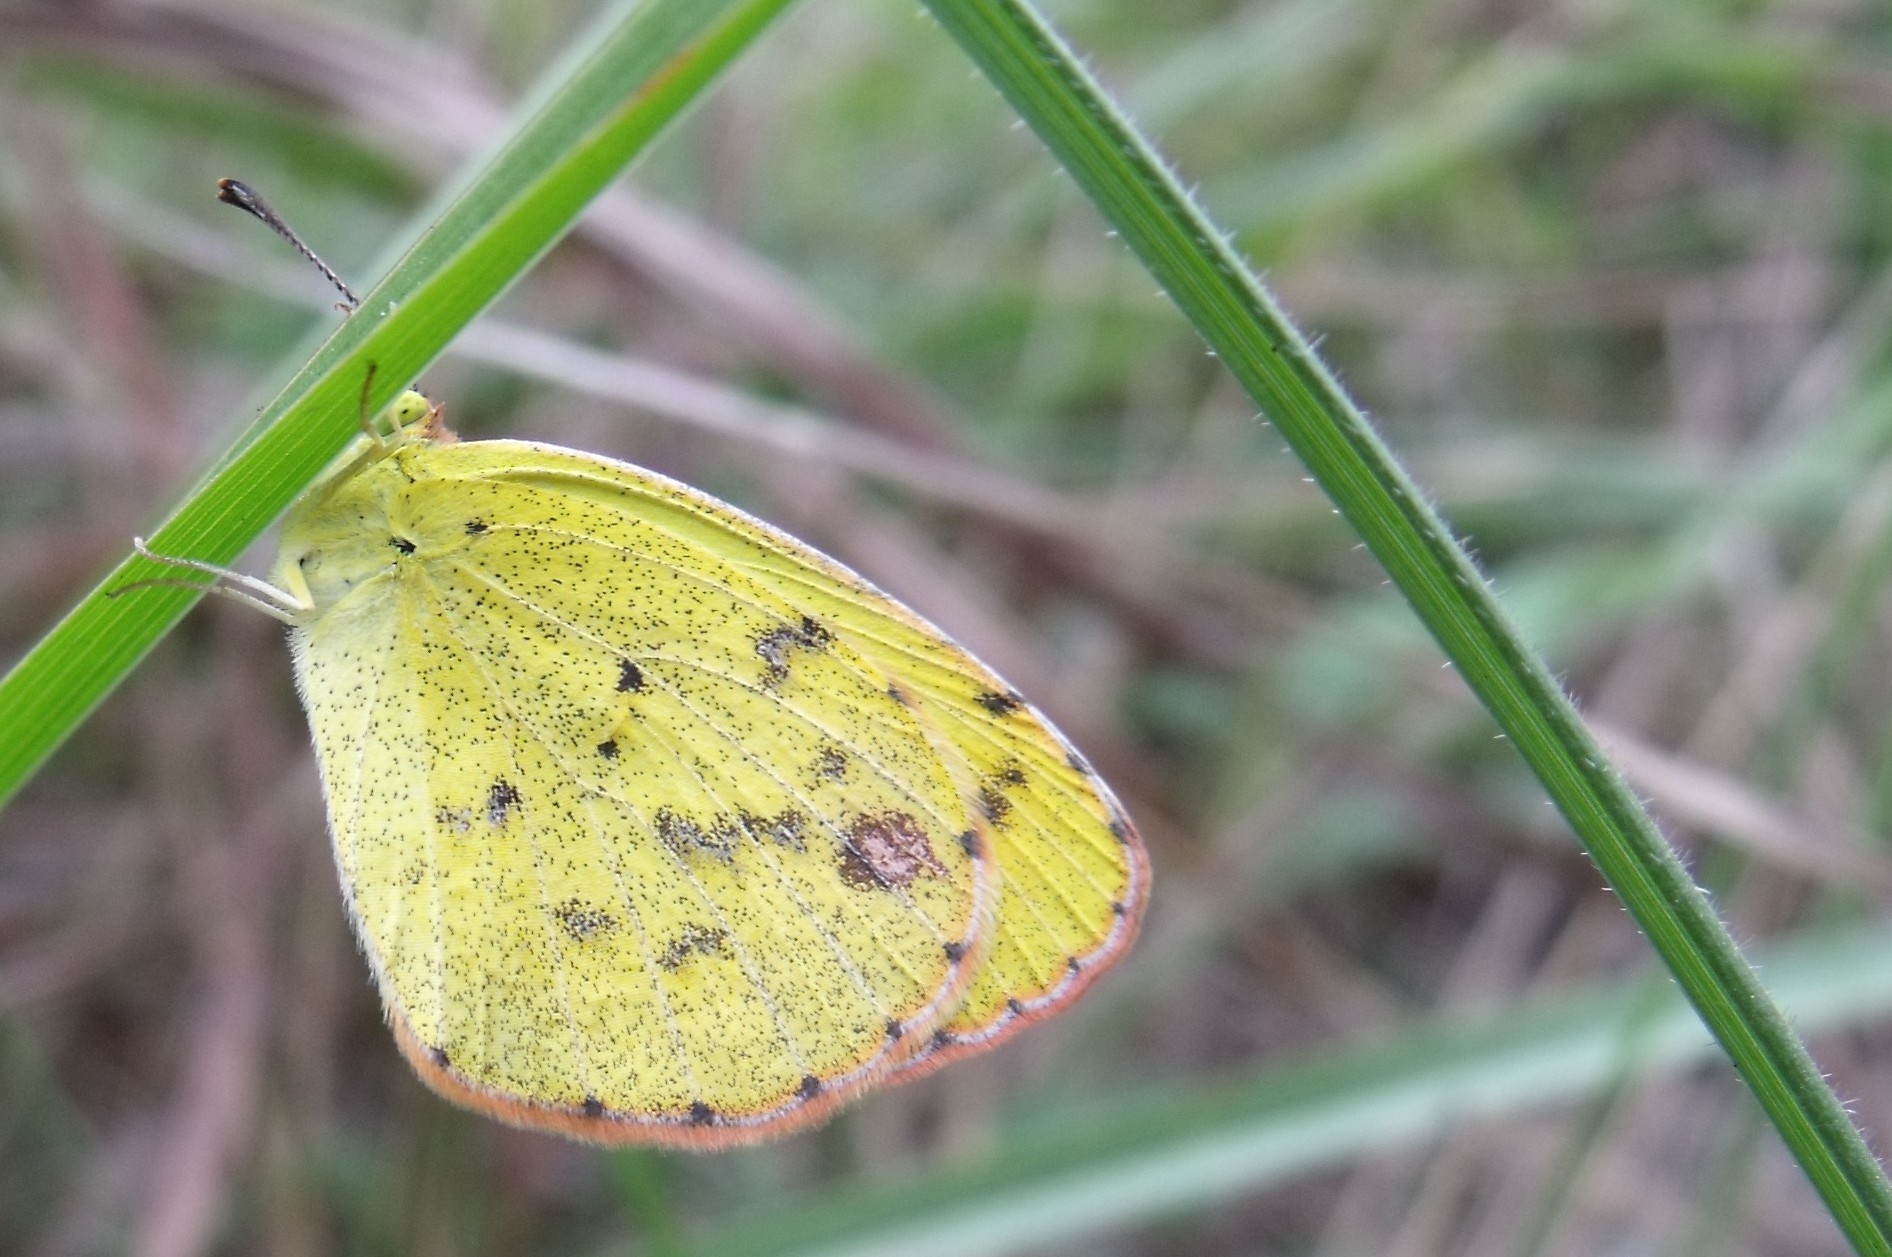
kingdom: Animalia
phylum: Arthropoda
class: Insecta
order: Lepidoptera
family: Pieridae
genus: Pyrisitia
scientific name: Pyrisitia lisa
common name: Little yellow
